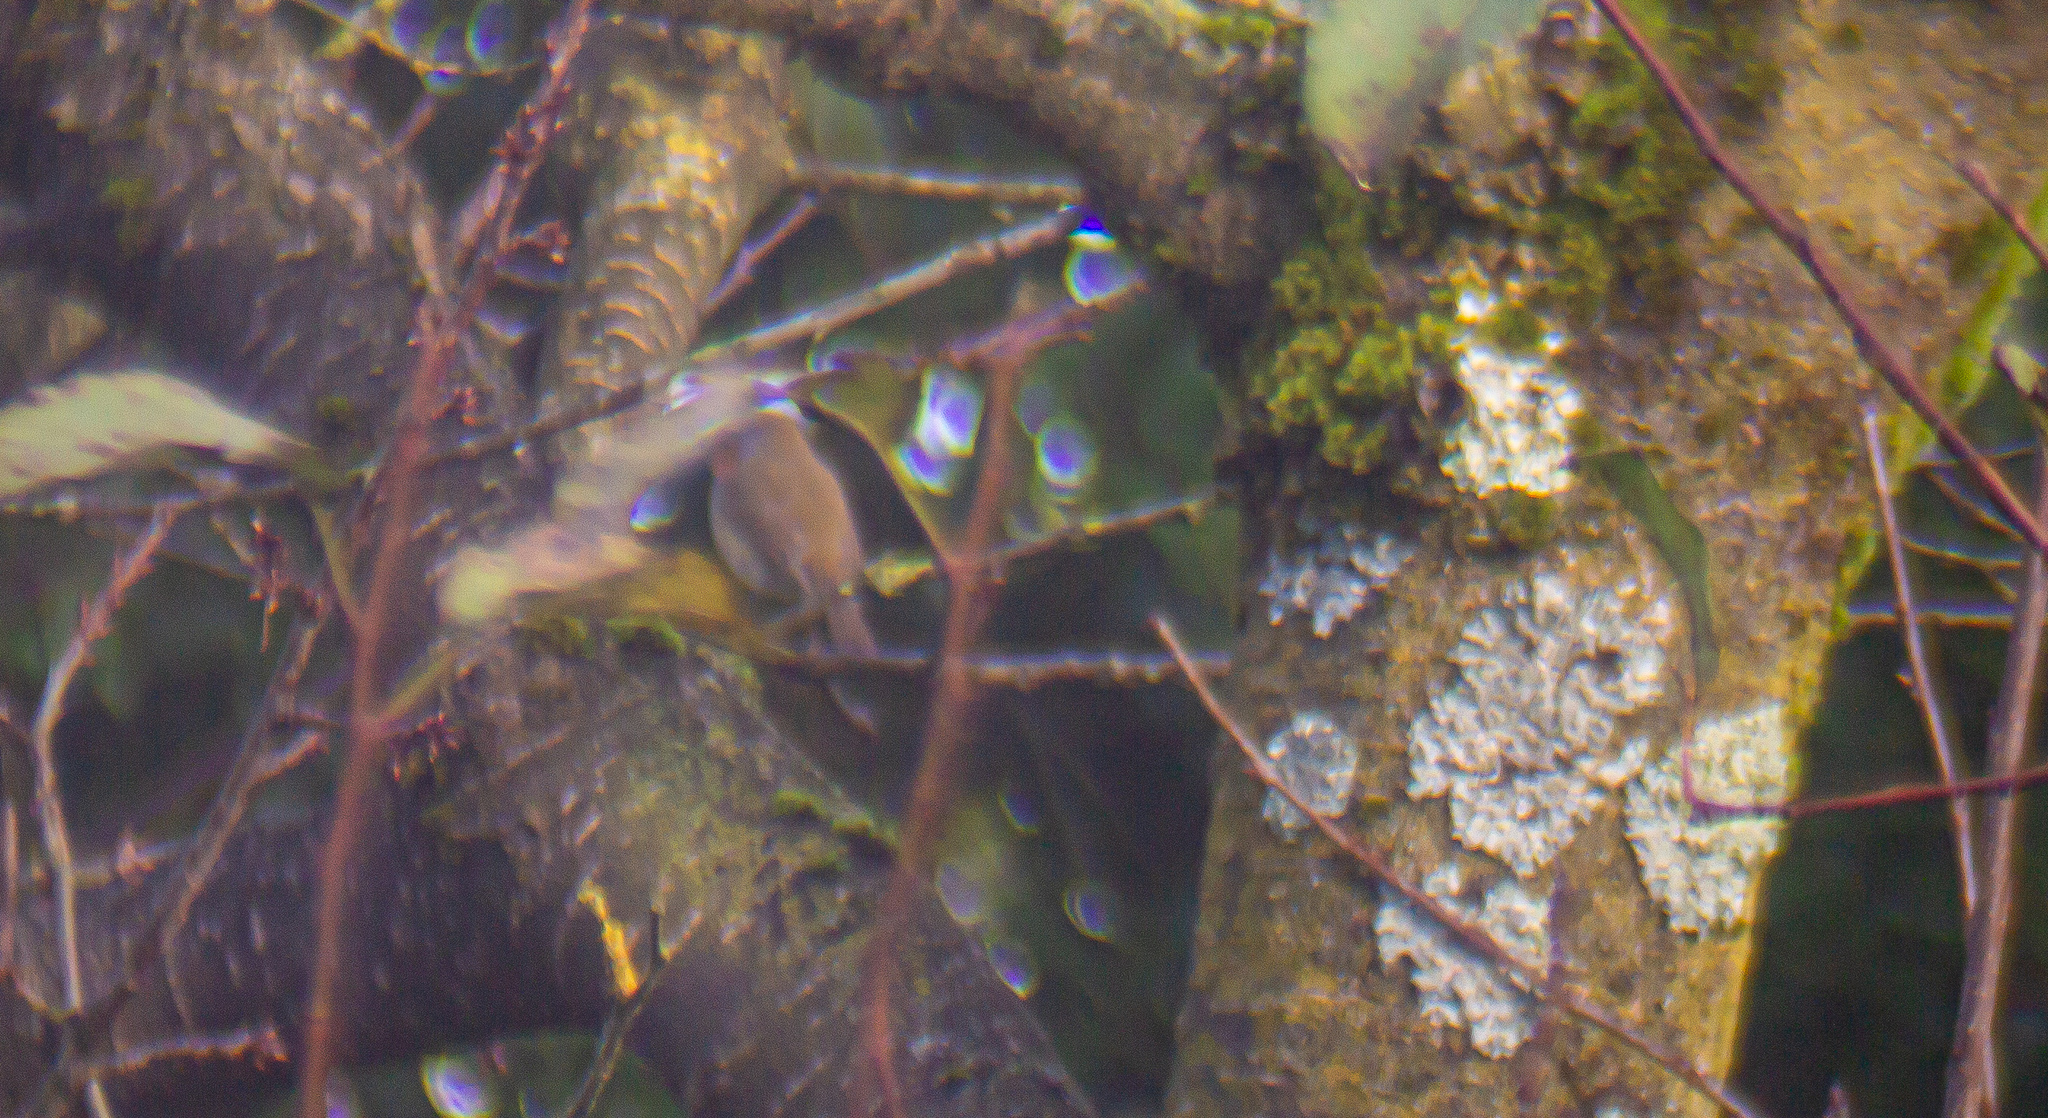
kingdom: Animalia
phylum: Chordata
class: Aves
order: Passeriformes
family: Muscicapidae
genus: Erithacus
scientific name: Erithacus rubecula
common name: European robin
